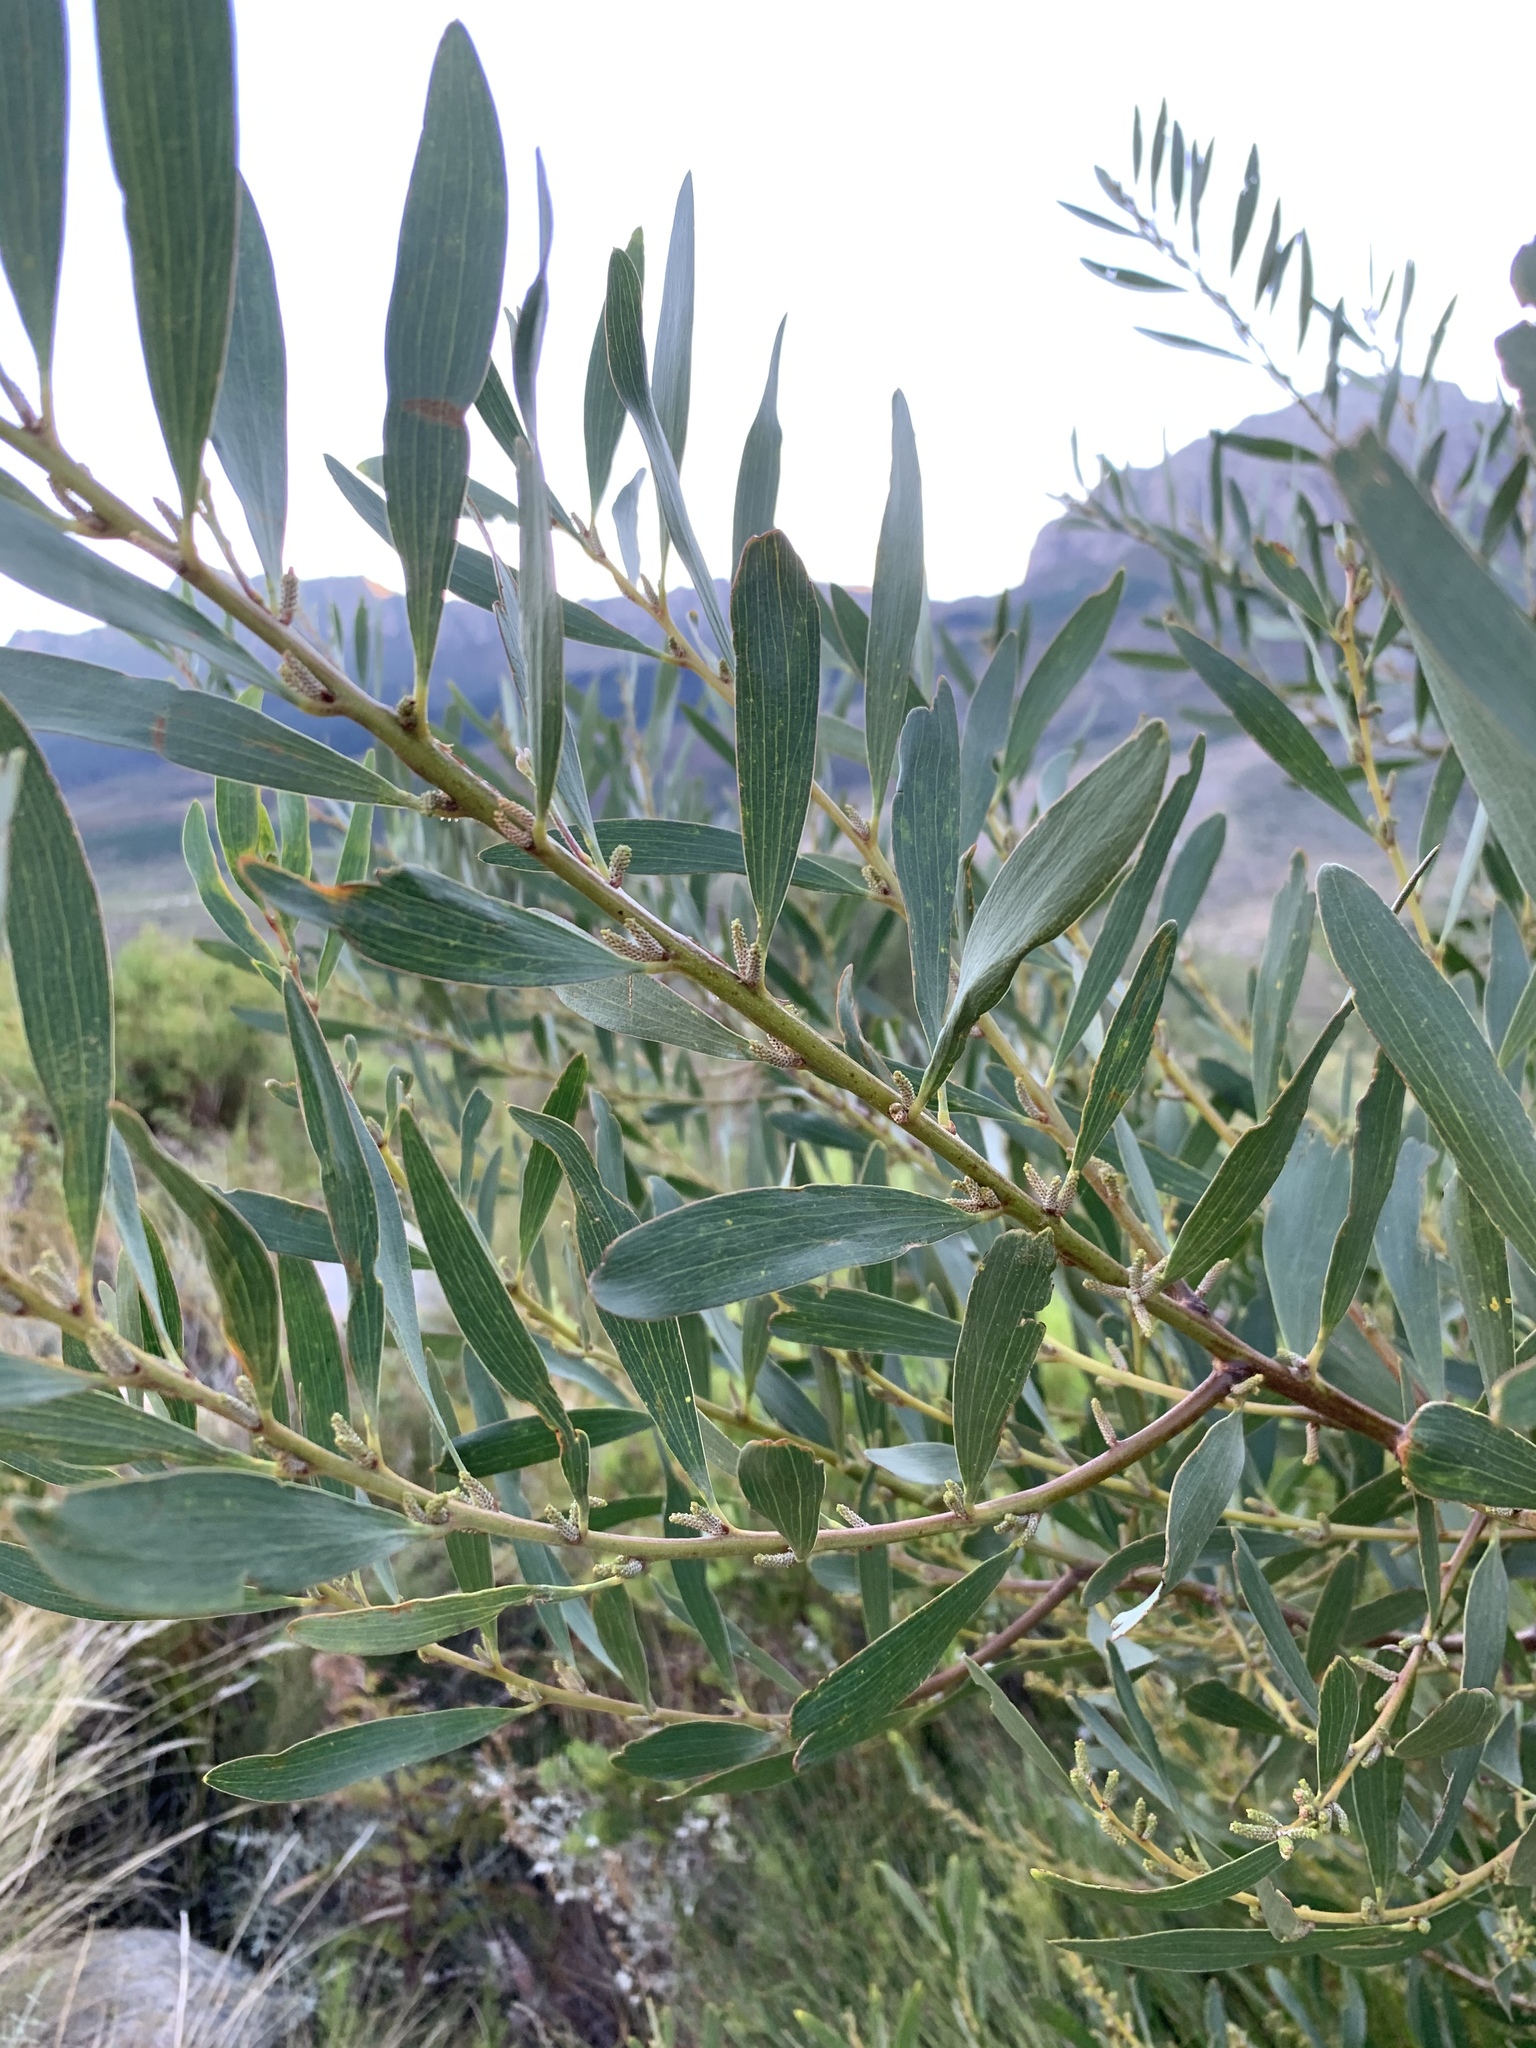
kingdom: Plantae
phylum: Tracheophyta
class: Magnoliopsida
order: Fabales
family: Fabaceae
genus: Acacia
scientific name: Acacia longifolia
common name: Sydney golden wattle
